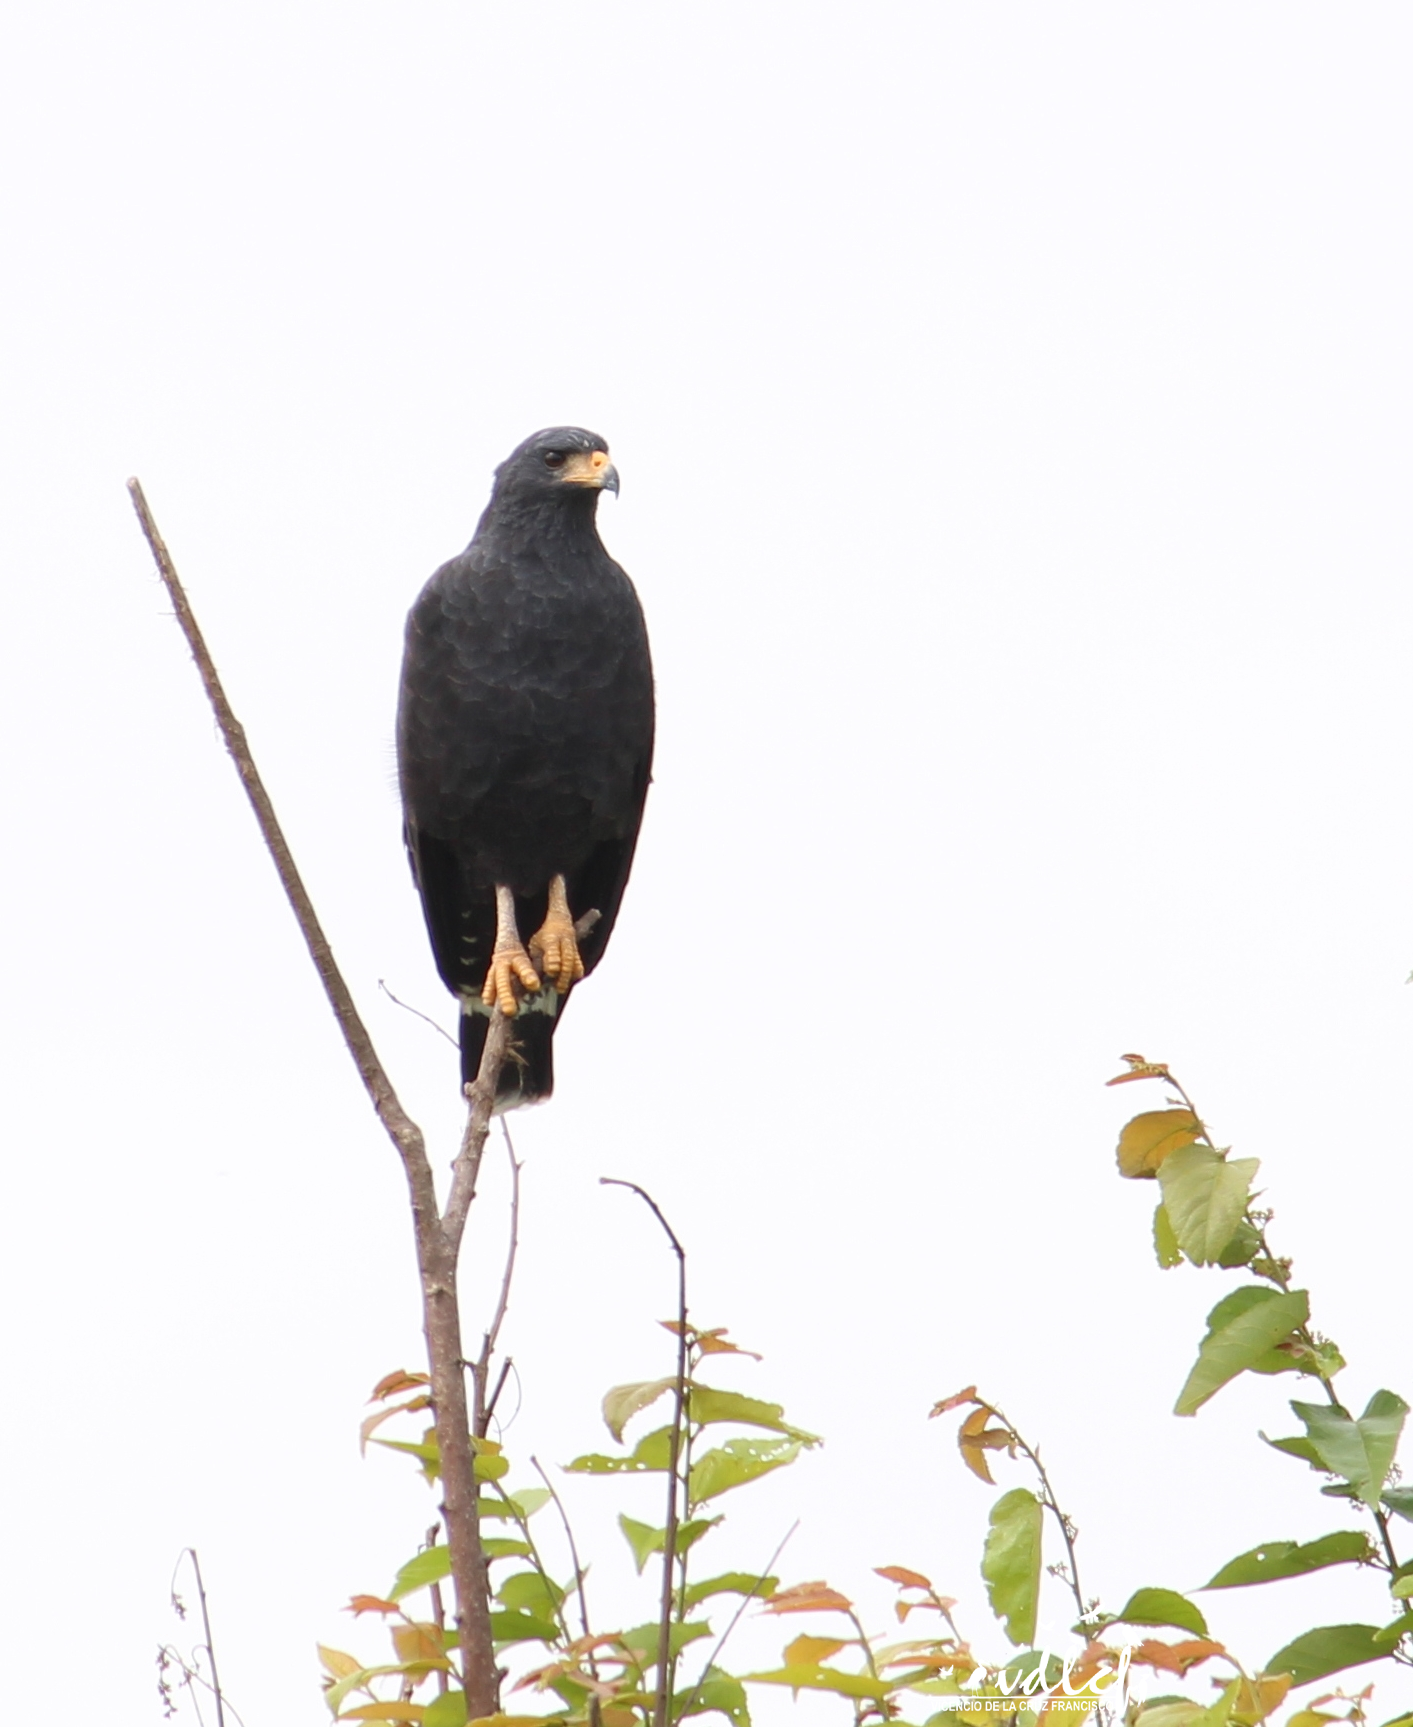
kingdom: Animalia
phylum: Chordata
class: Aves
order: Accipitriformes
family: Accipitridae
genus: Buteogallus
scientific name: Buteogallus anthracinus
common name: Common black hawk
